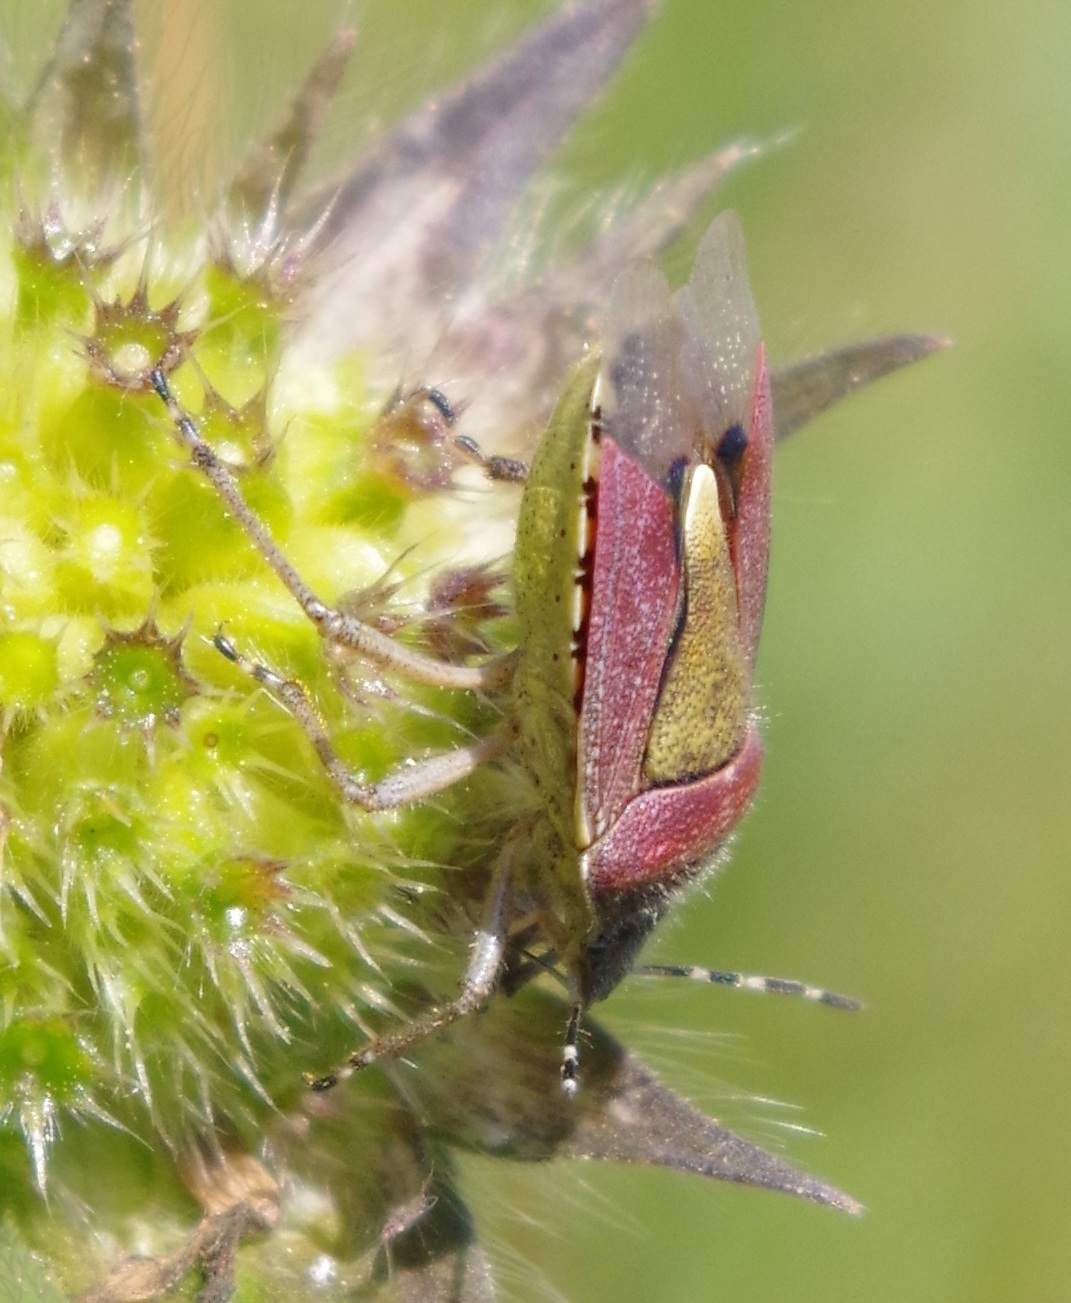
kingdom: Animalia
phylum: Arthropoda
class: Insecta
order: Hemiptera
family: Pentatomidae
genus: Dolycoris
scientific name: Dolycoris baccarum
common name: Sloe bug
